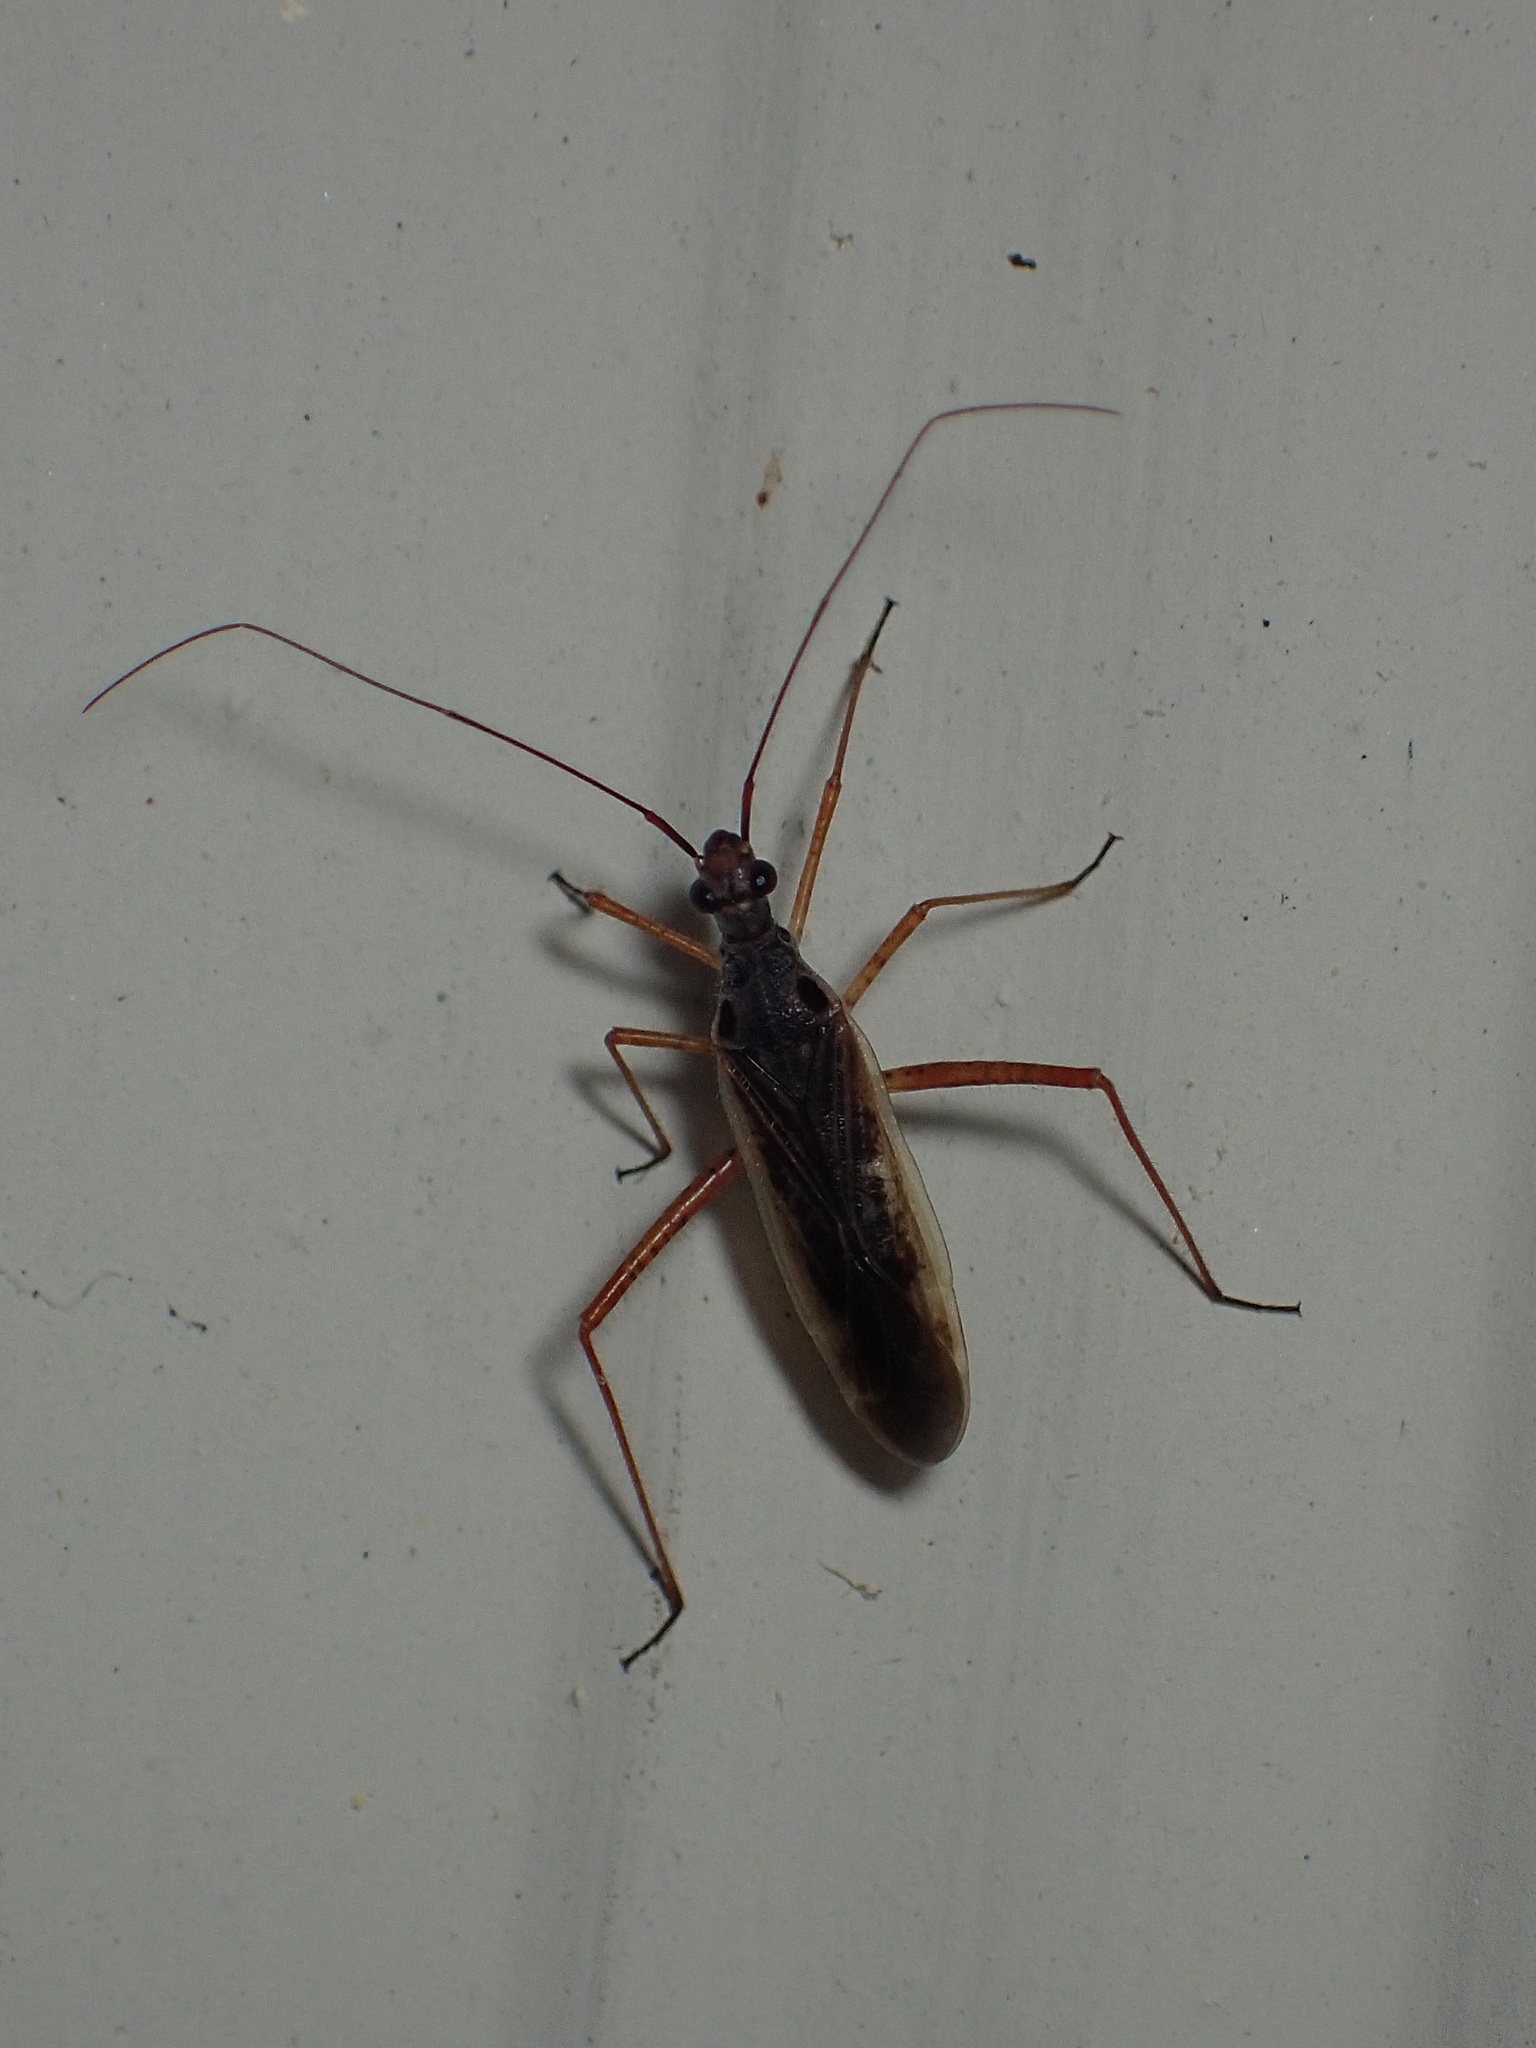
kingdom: Animalia
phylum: Arthropoda
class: Insecta
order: Hemiptera
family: Miridae
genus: Collaria
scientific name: Collaria oculata
